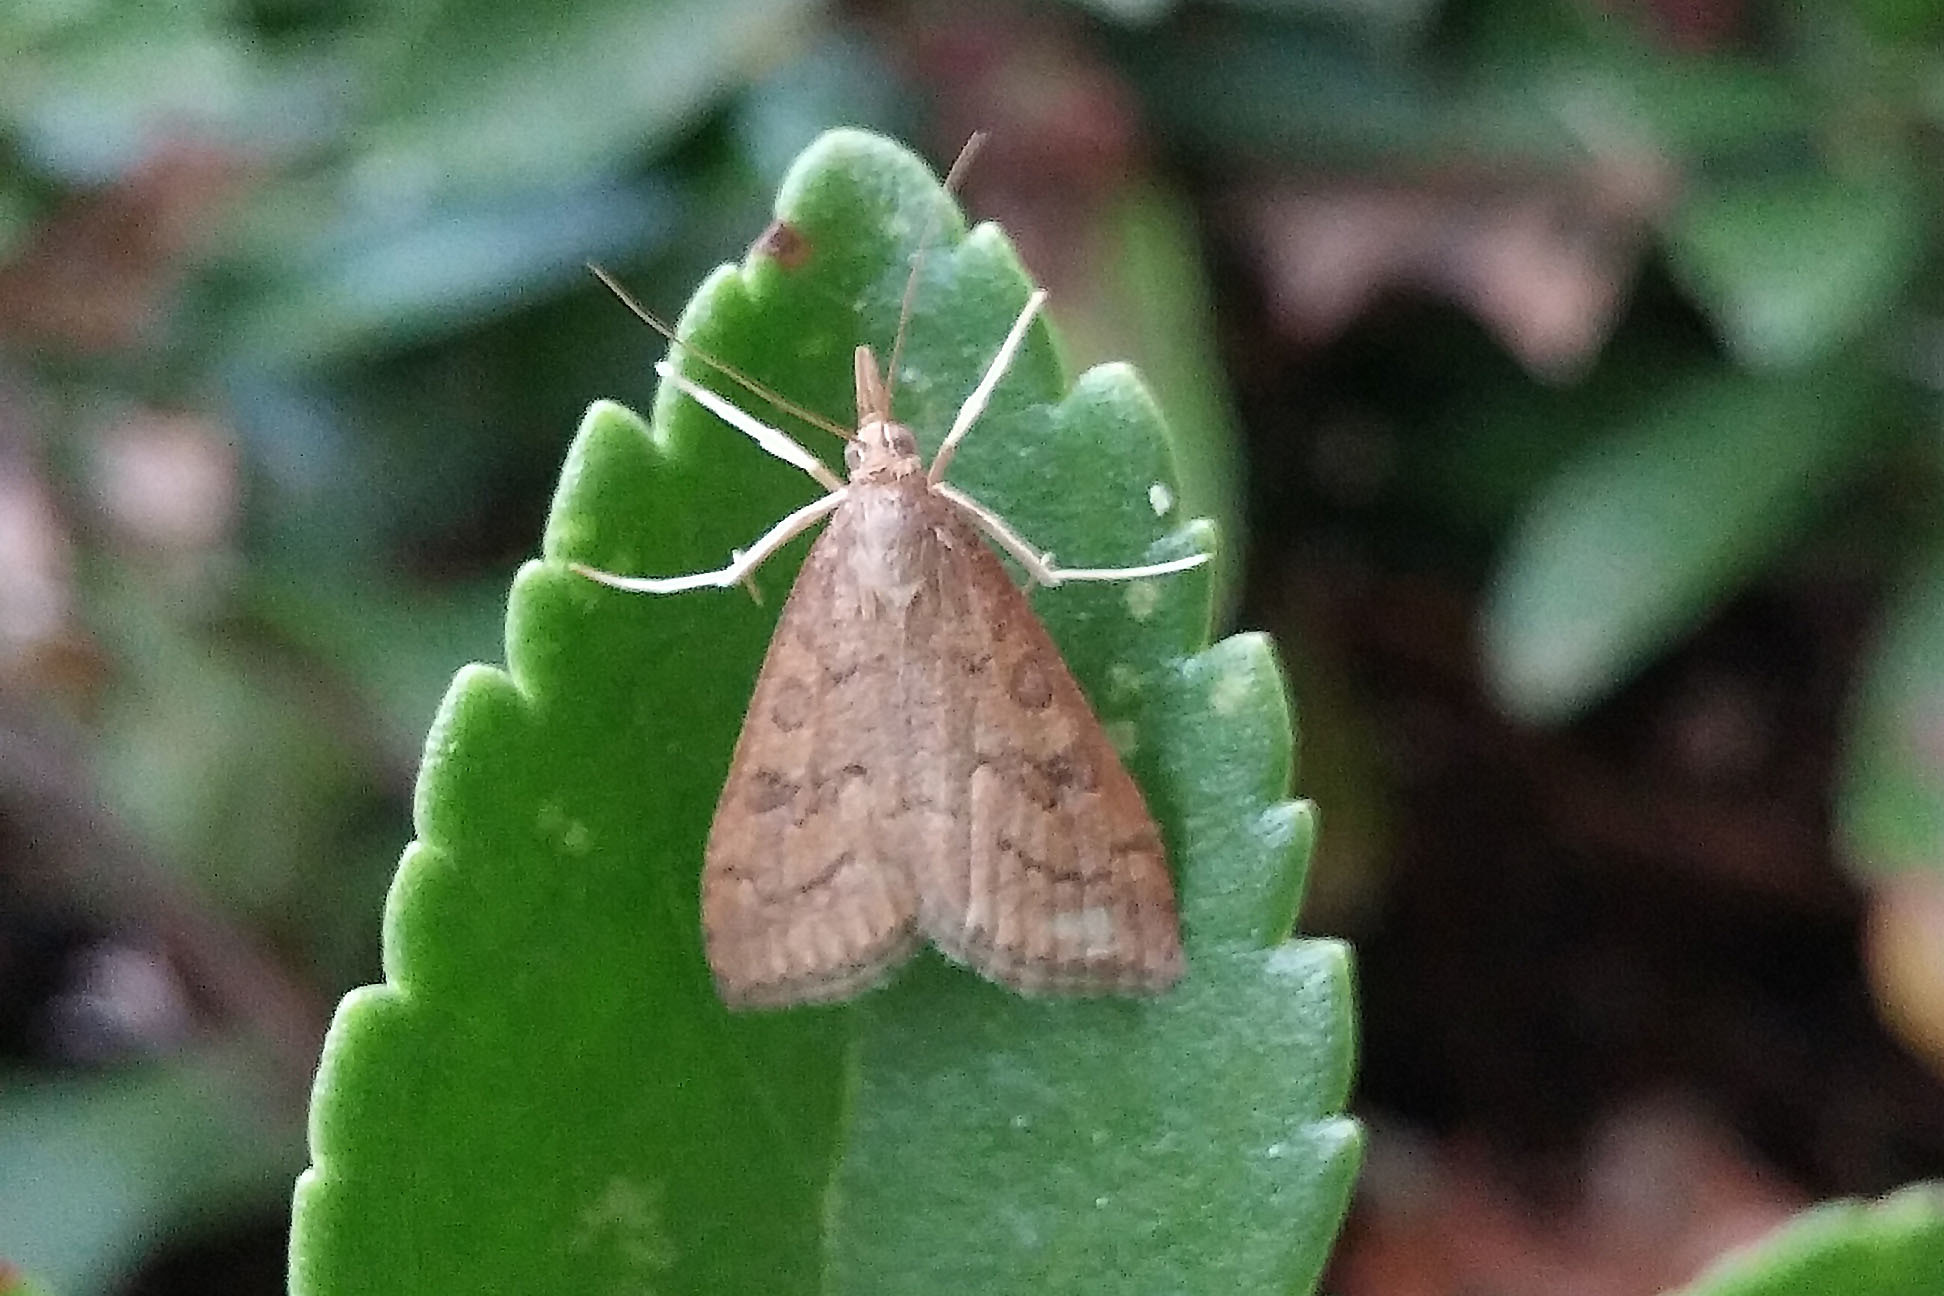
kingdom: Animalia
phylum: Arthropoda
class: Insecta
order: Lepidoptera
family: Crambidae
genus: Udea
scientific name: Udea rubigalis
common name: Celery leaftier moth
